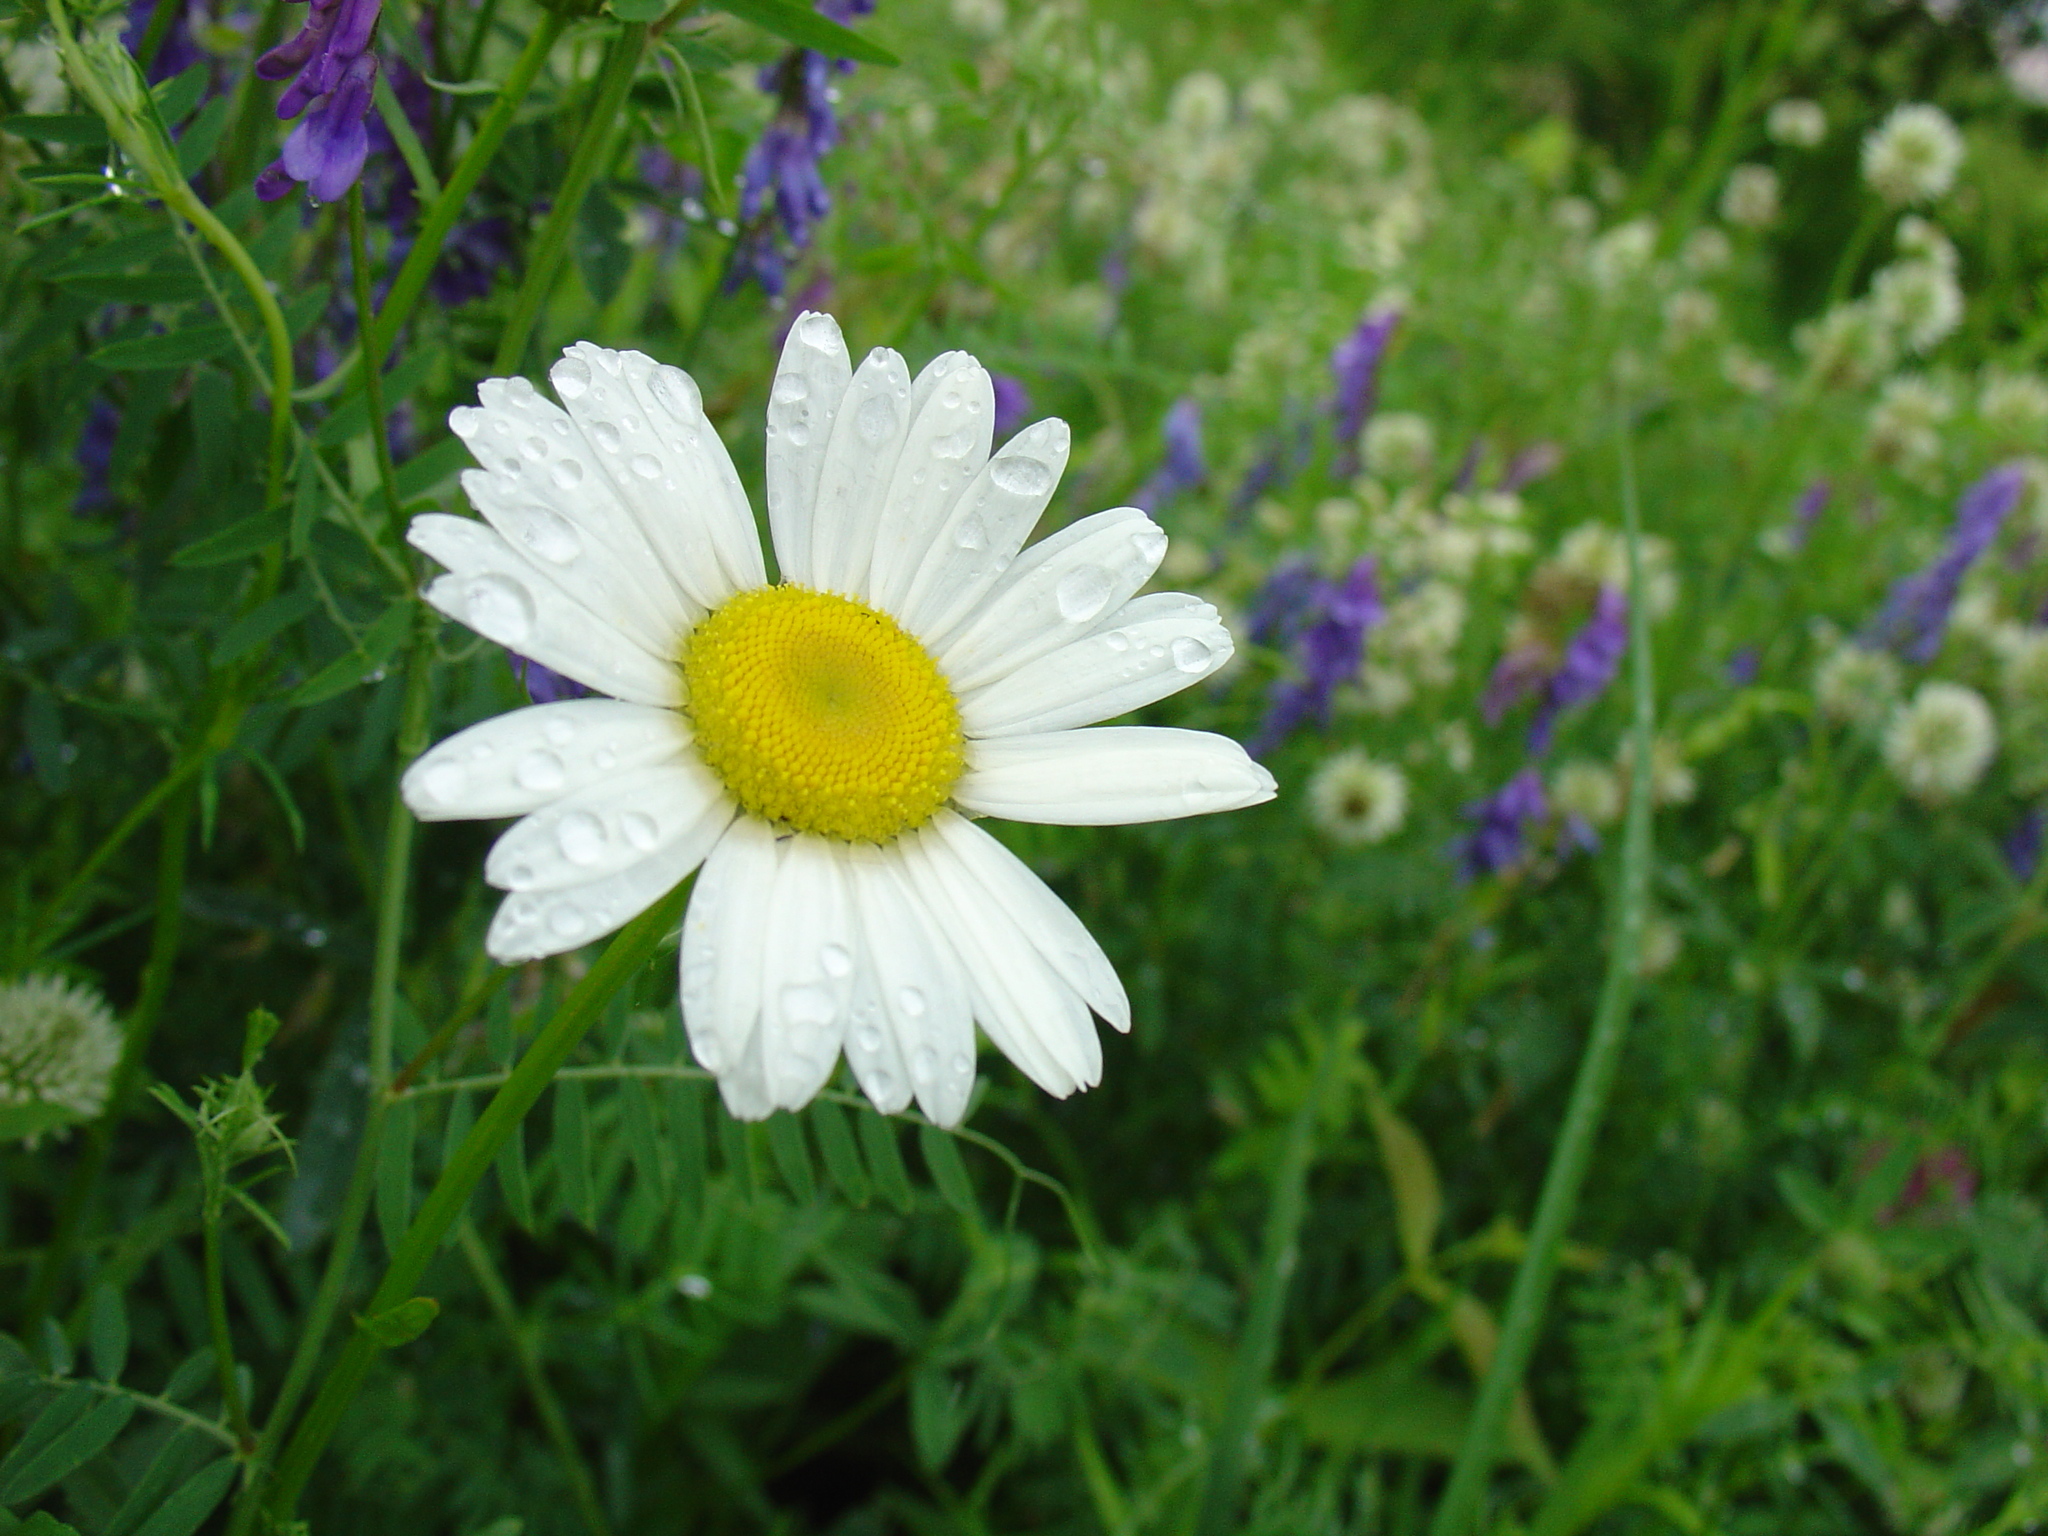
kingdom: Plantae
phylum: Tracheophyta
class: Magnoliopsida
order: Asterales
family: Asteraceae
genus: Leucanthemum
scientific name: Leucanthemum vulgare
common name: Oxeye daisy
